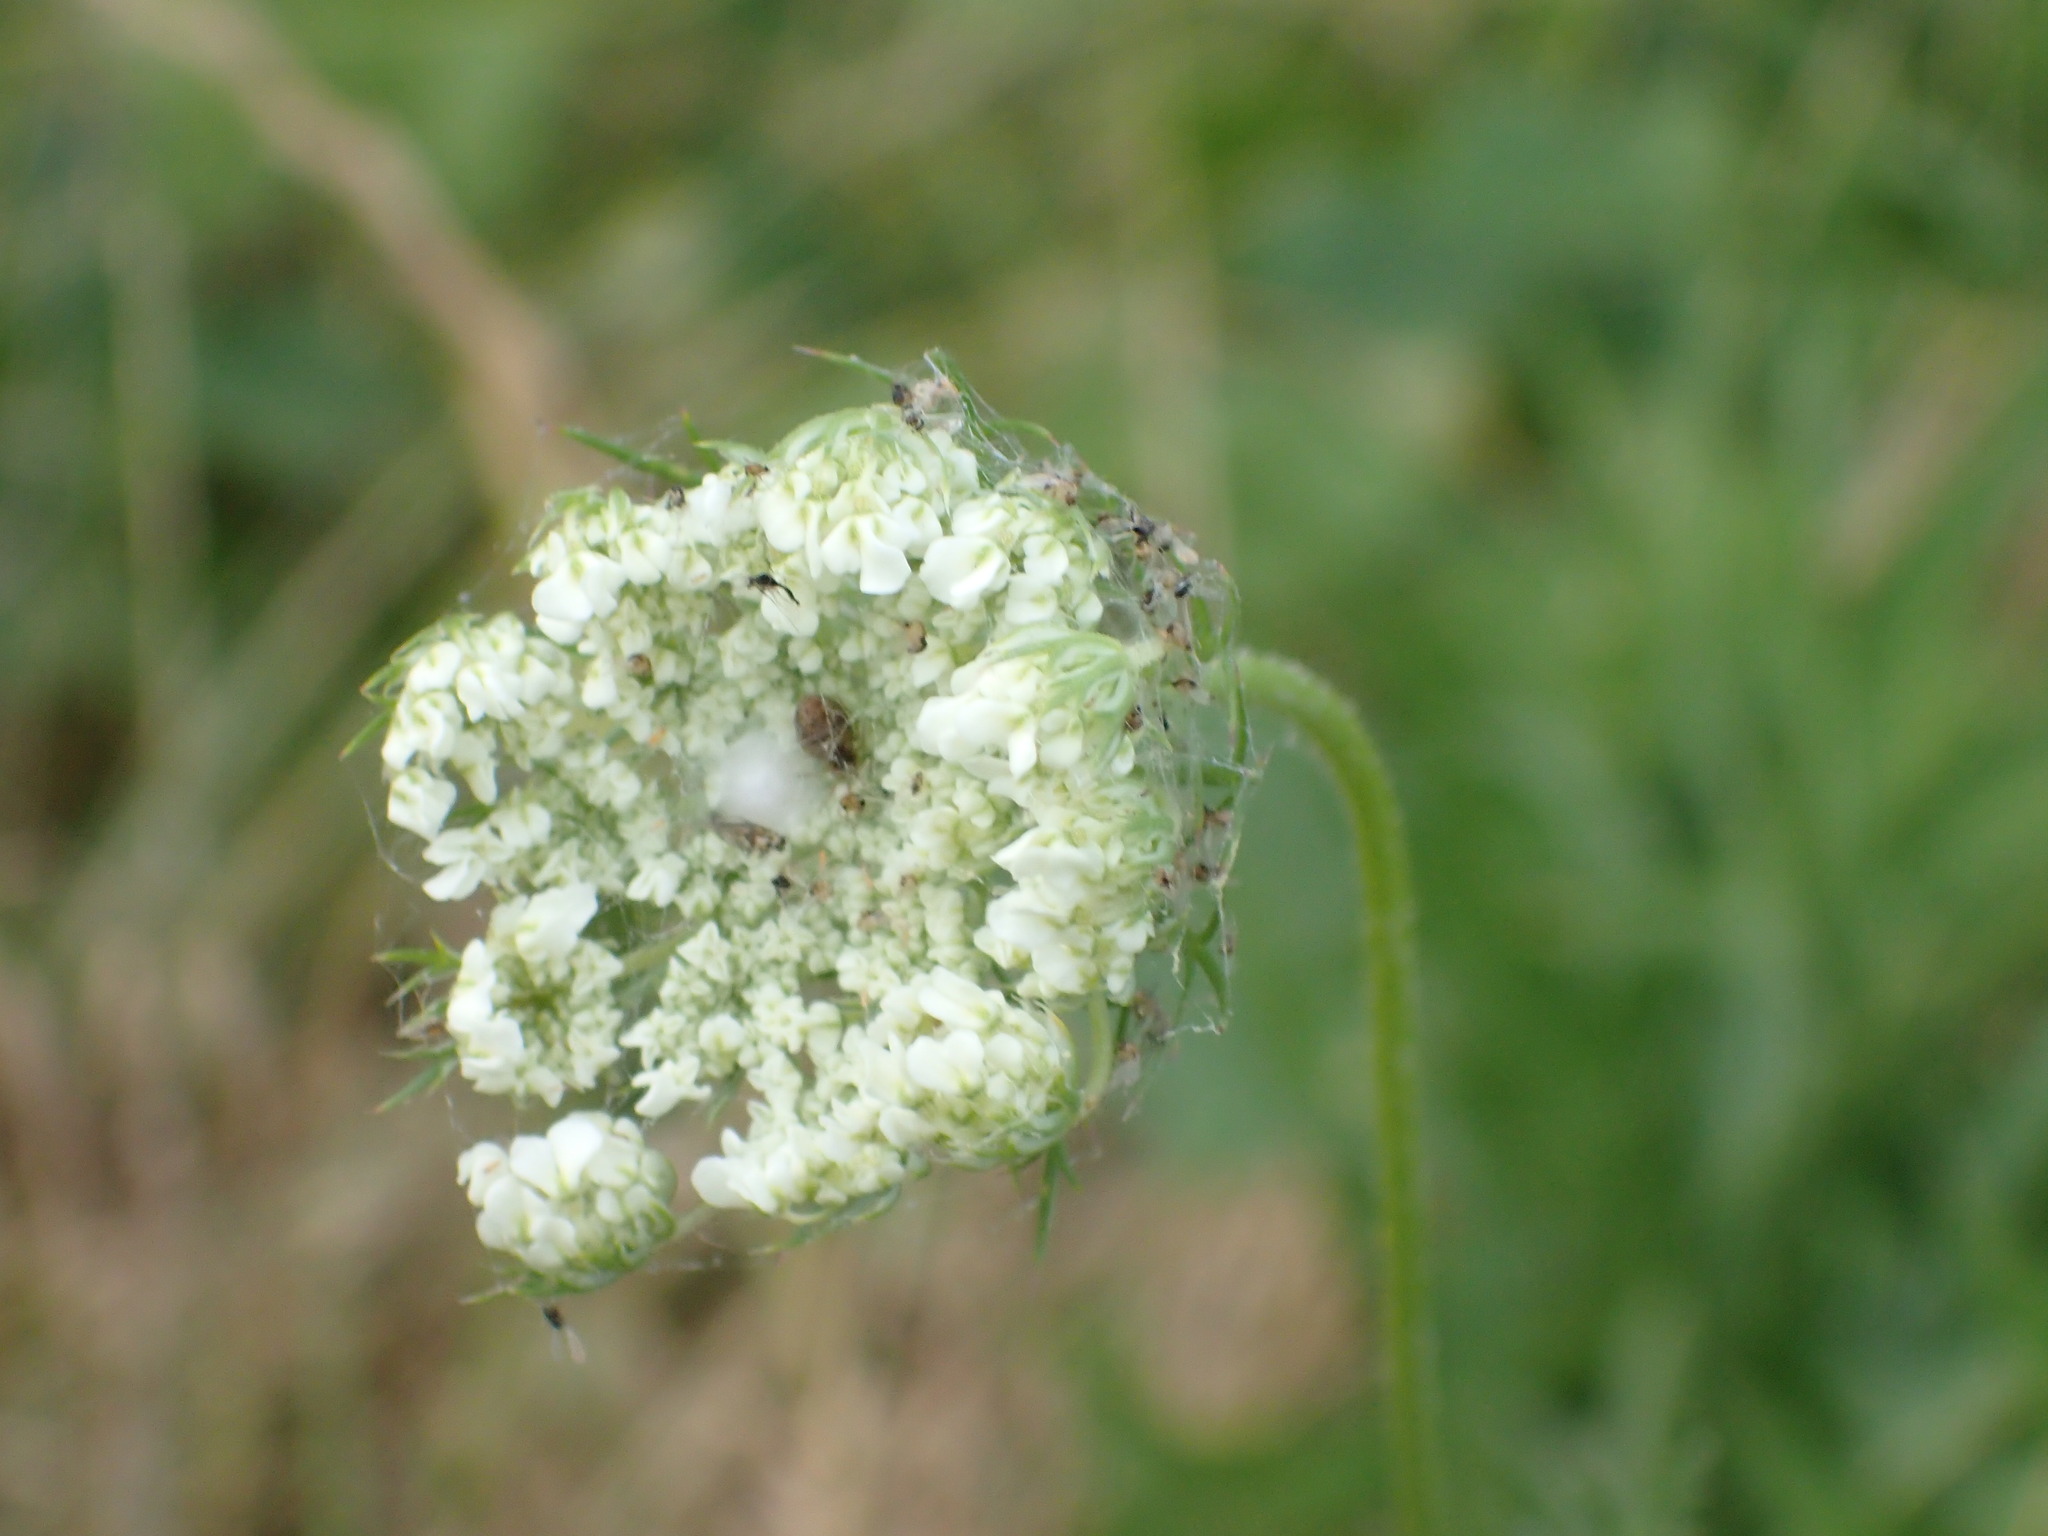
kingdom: Plantae
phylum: Tracheophyta
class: Magnoliopsida
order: Apiales
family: Apiaceae
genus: Daucus
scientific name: Daucus carota
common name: Wild carrot
